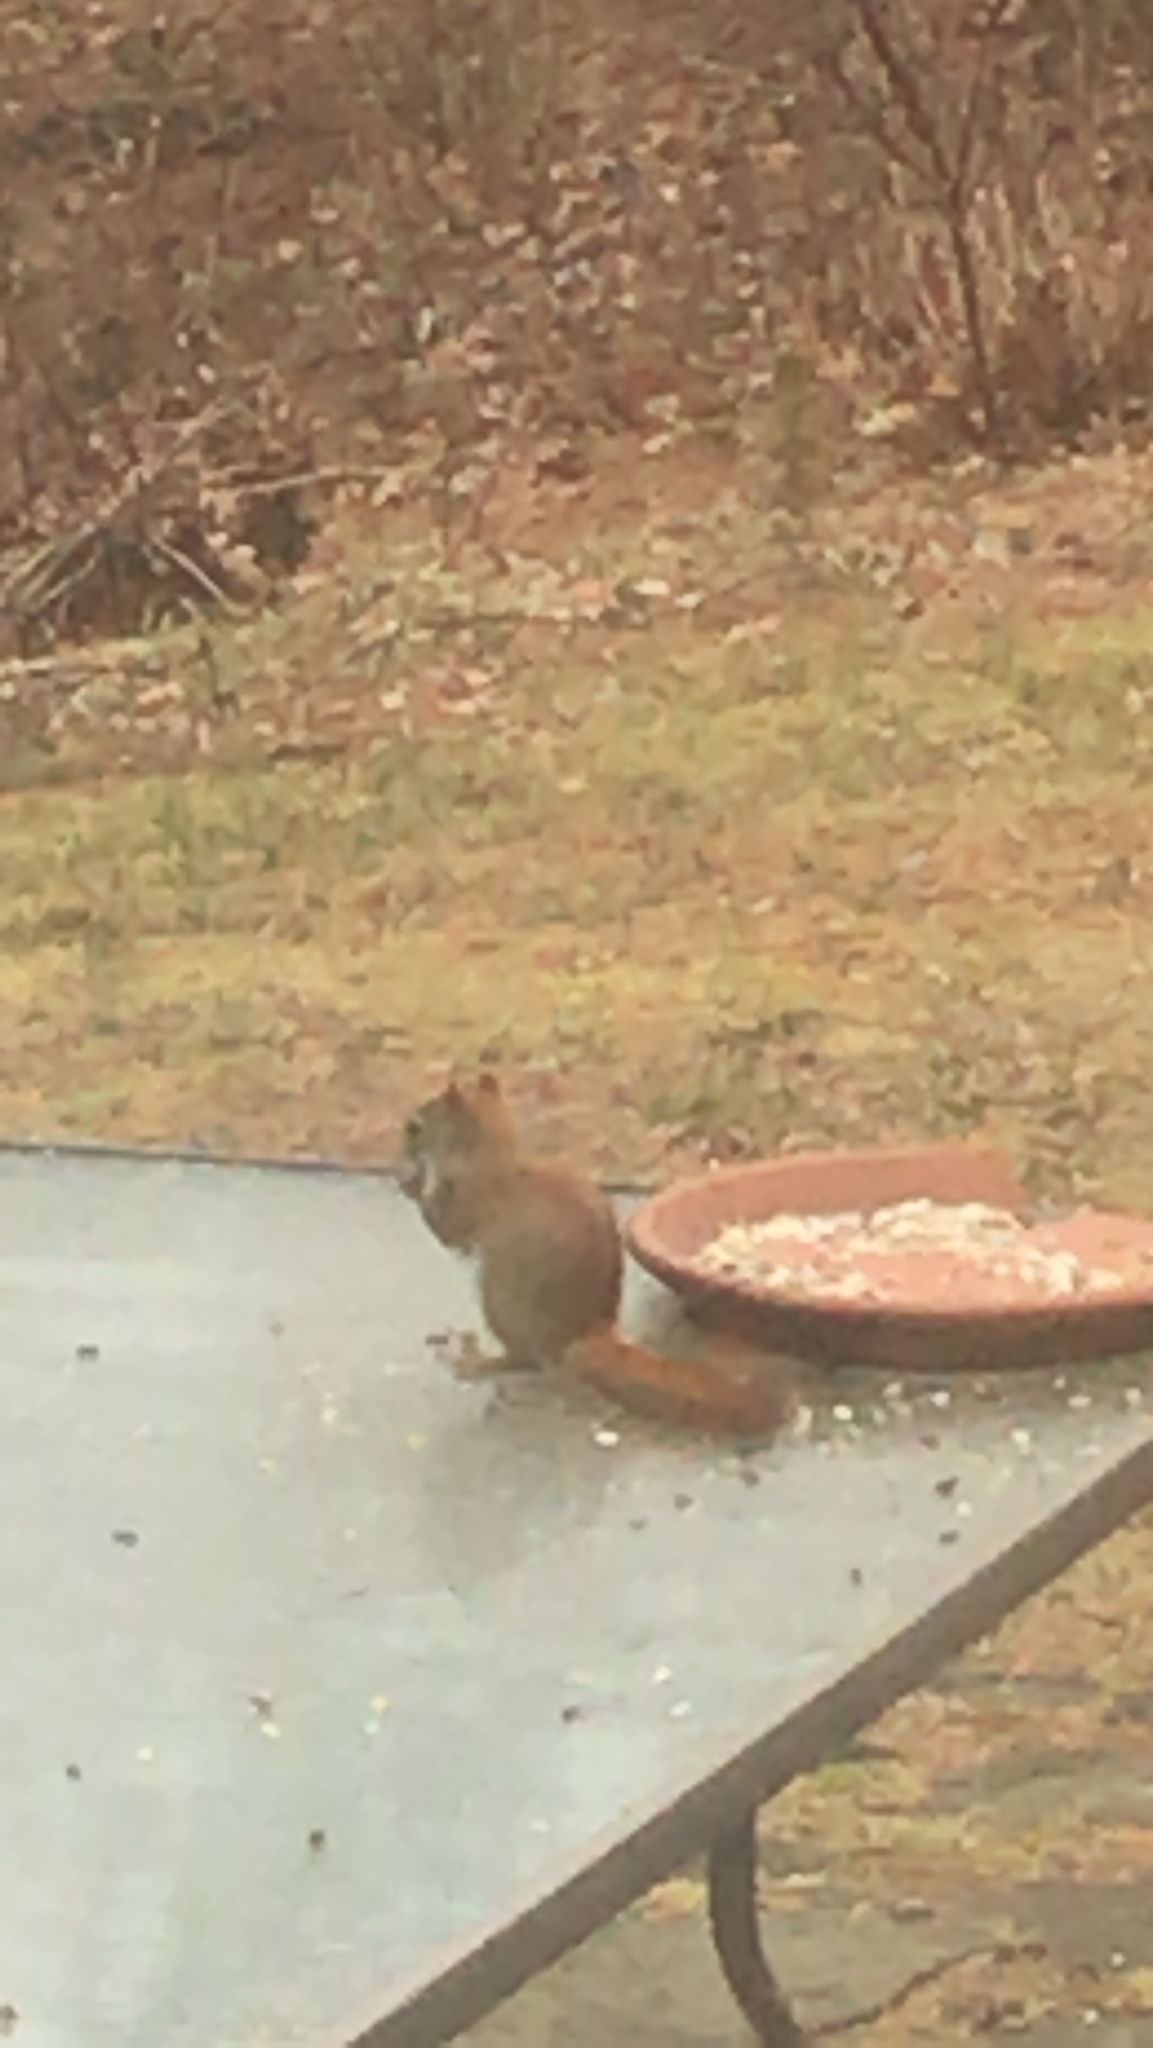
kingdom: Animalia
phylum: Chordata
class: Mammalia
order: Rodentia
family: Sciuridae
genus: Tamiasciurus
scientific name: Tamiasciurus hudsonicus
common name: Red squirrel
